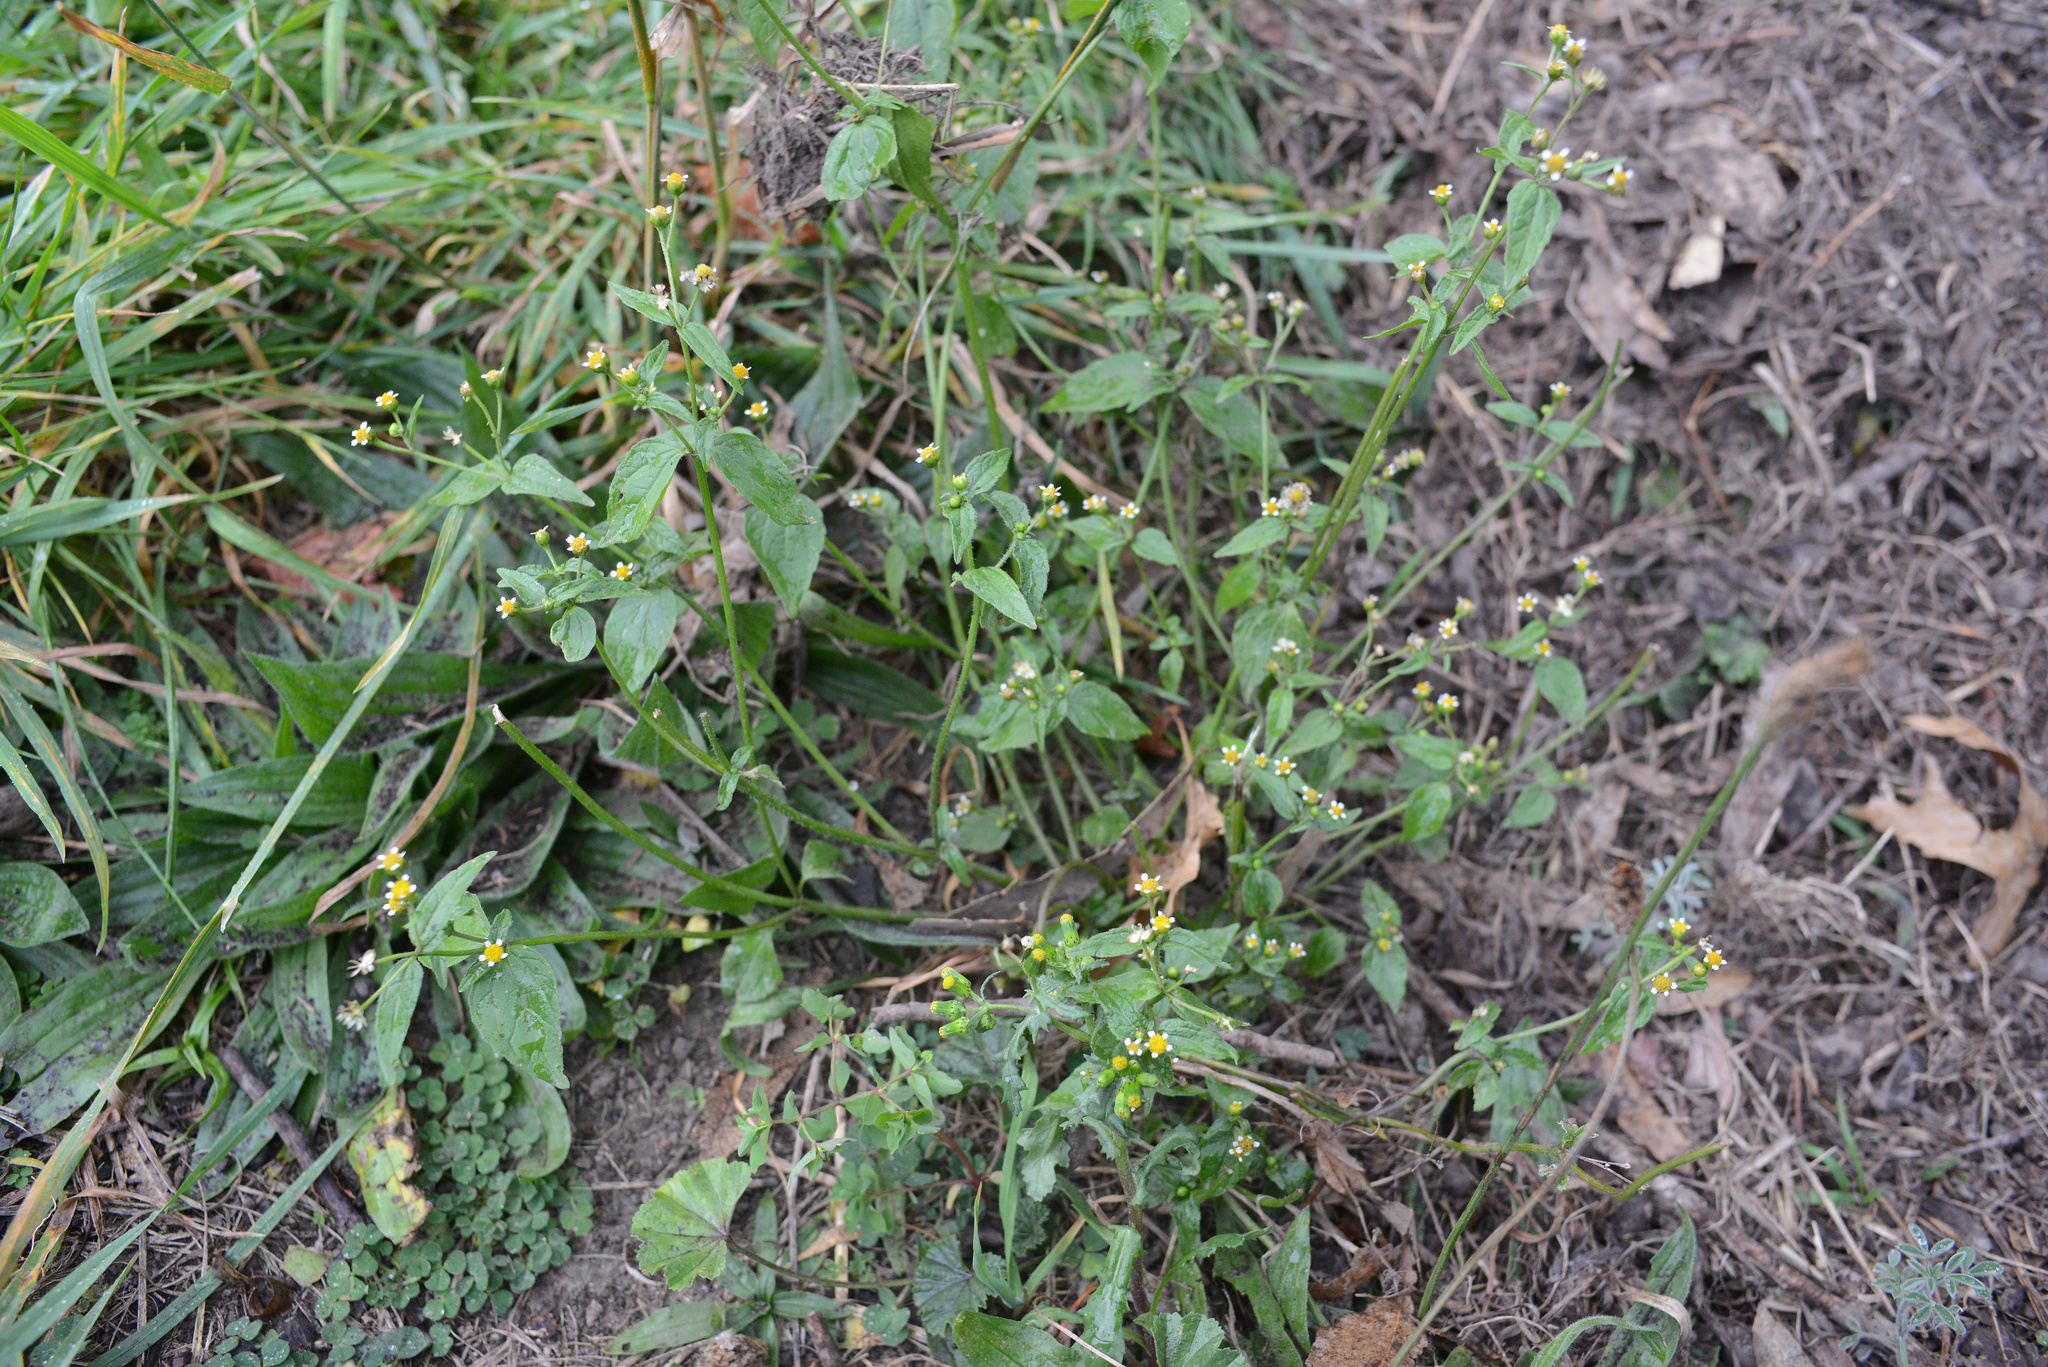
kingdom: Plantae
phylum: Tracheophyta
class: Magnoliopsida
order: Asterales
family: Asteraceae
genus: Galinsoga
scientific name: Galinsoga parviflora
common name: Gallant soldier
